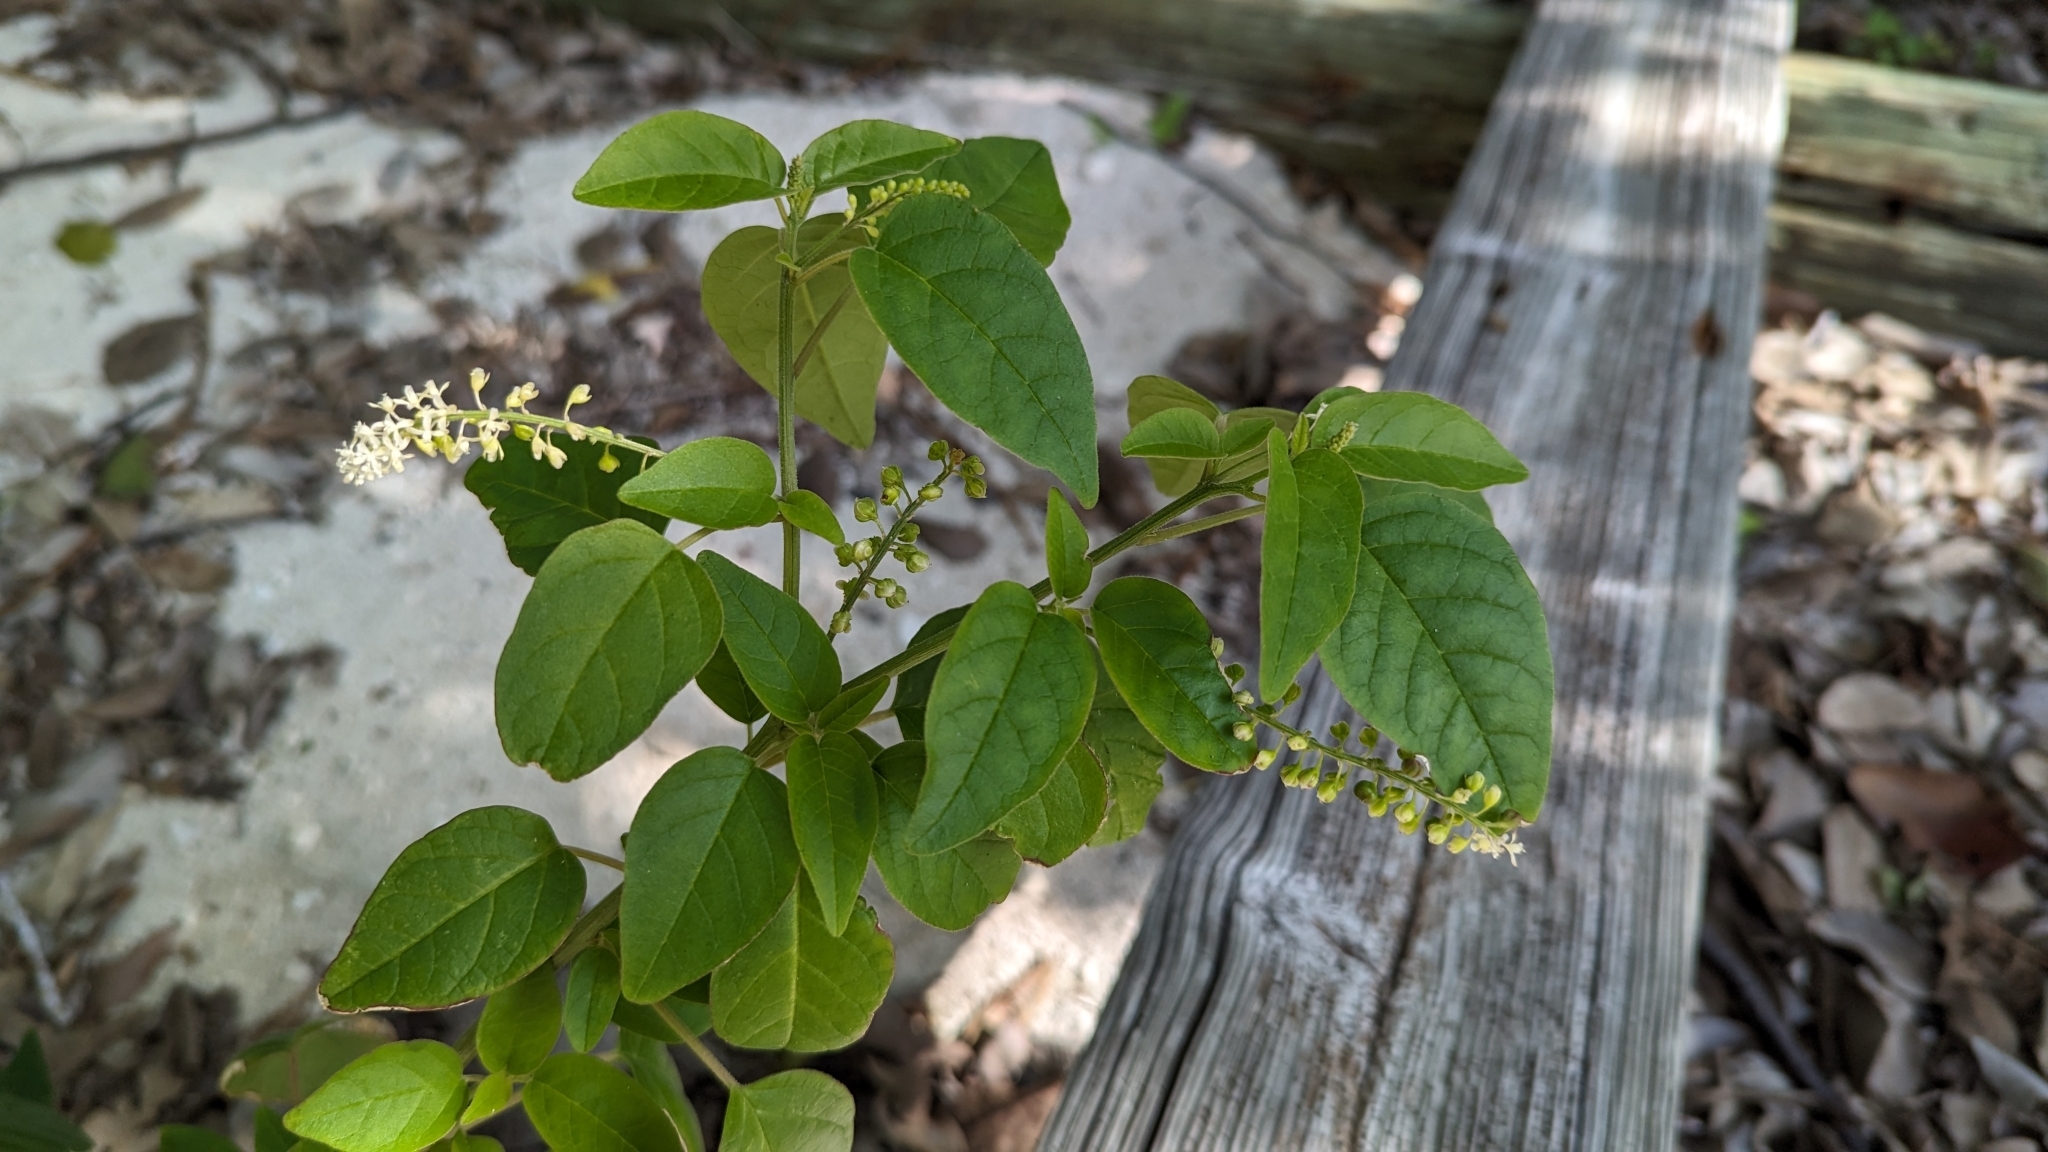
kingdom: Plantae
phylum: Tracheophyta
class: Magnoliopsida
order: Caryophyllales
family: Phytolaccaceae
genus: Rivina
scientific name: Rivina humilis
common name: Rougeplant
